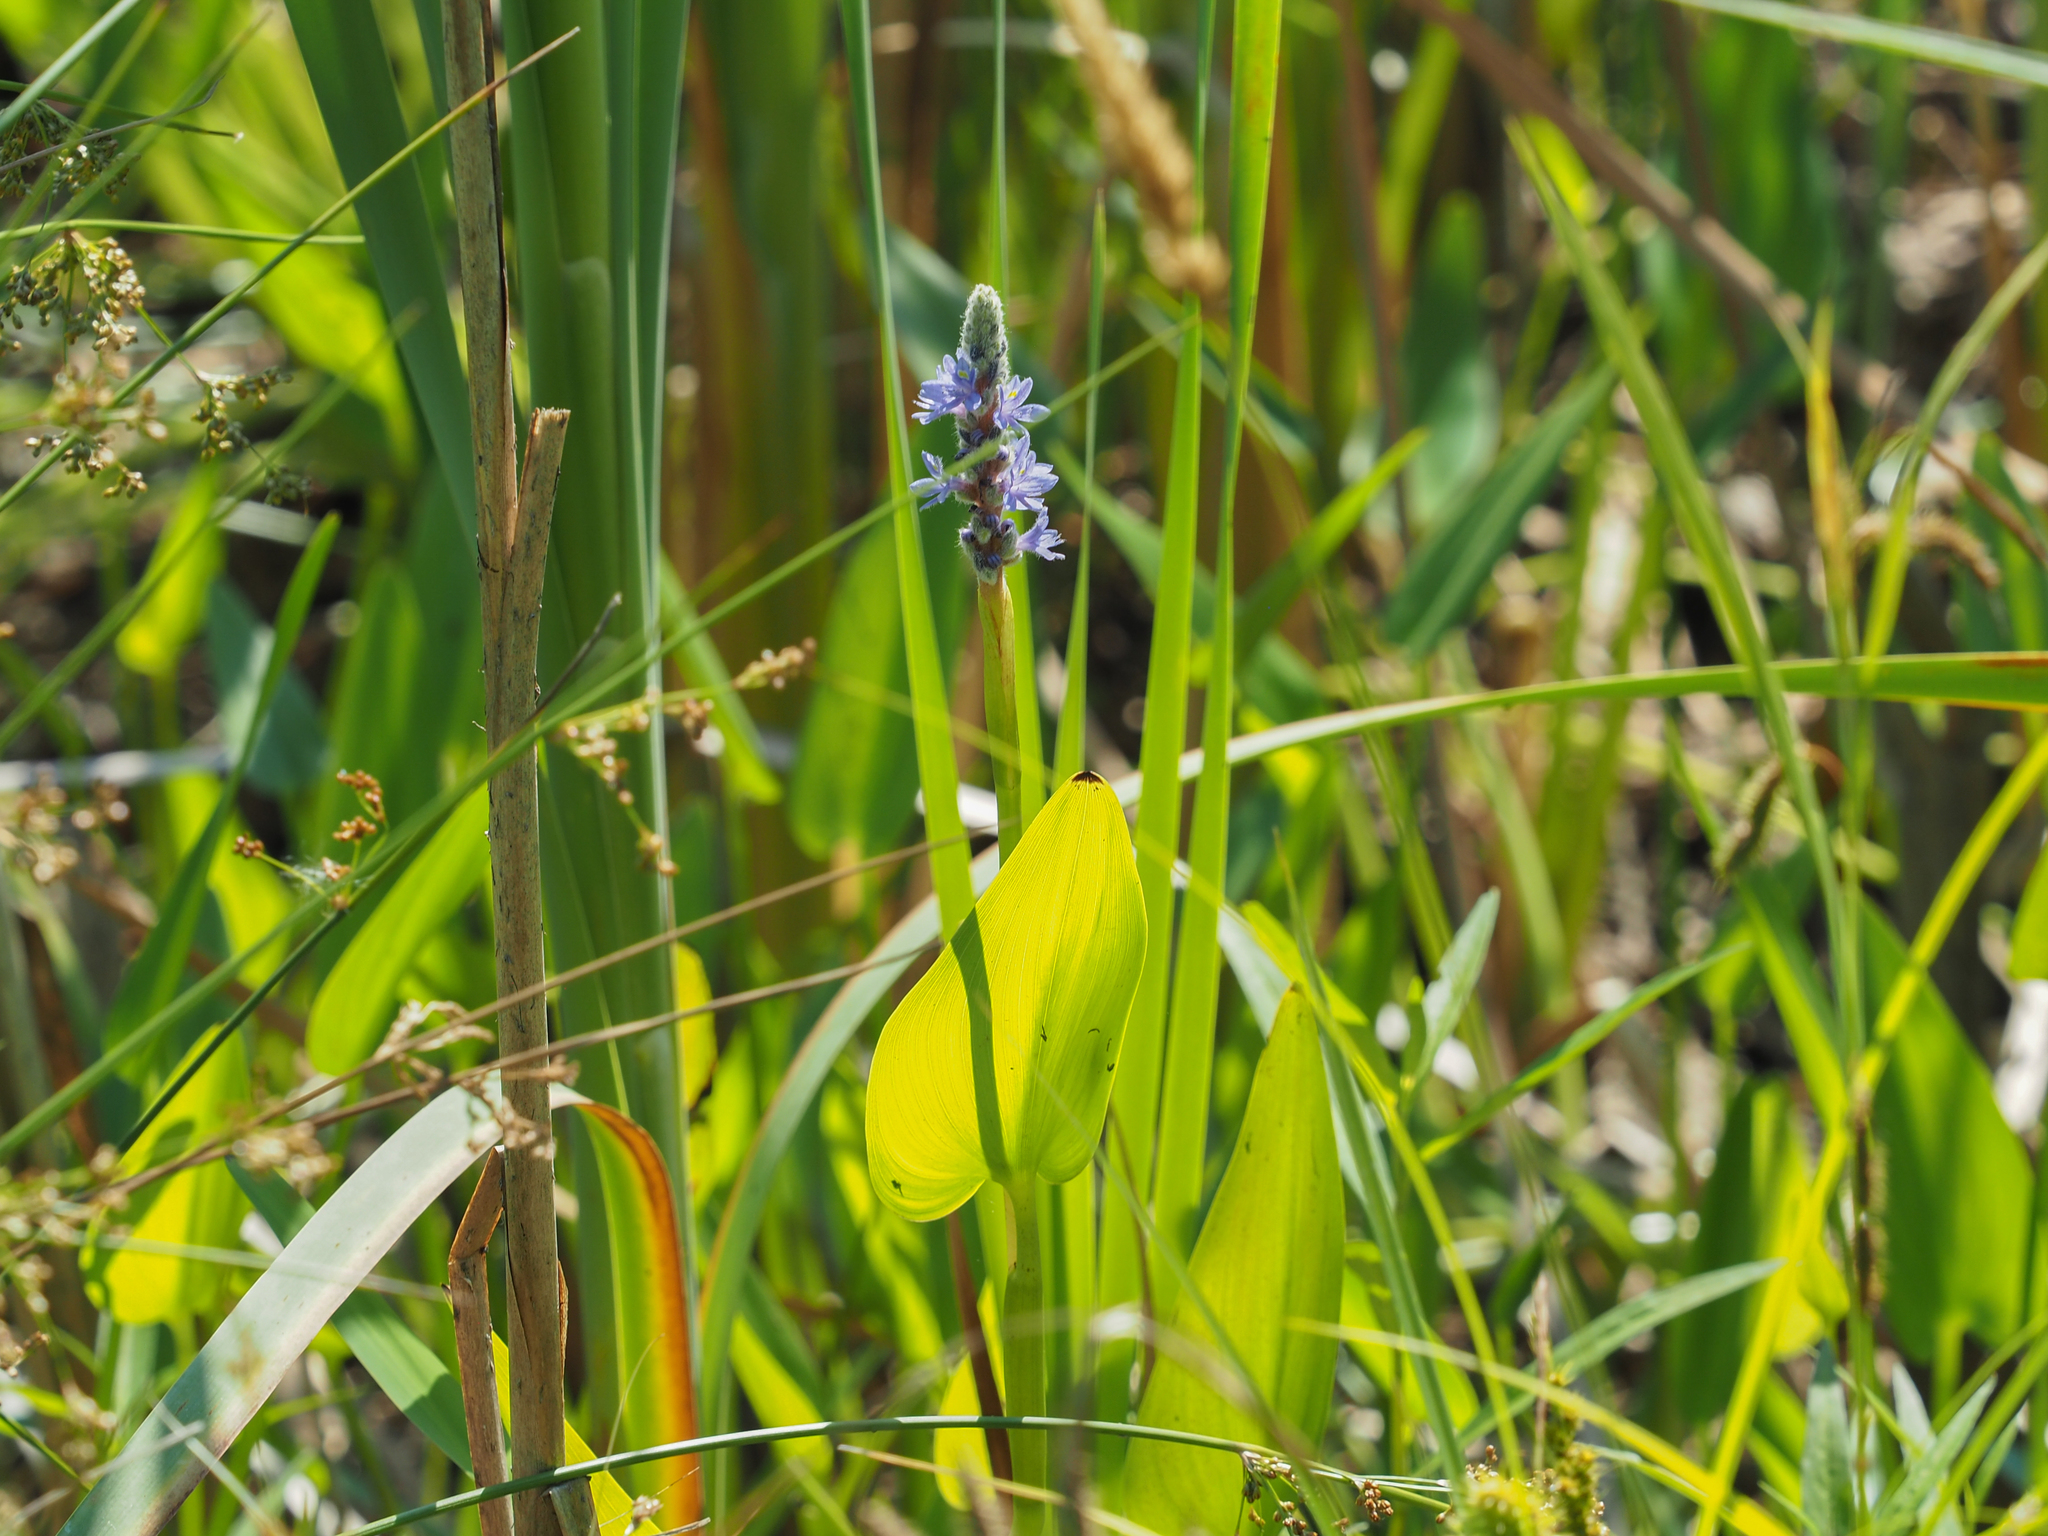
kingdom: Plantae
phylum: Tracheophyta
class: Liliopsida
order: Commelinales
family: Pontederiaceae
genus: Pontederia
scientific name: Pontederia cordata
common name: Pickerelweed
